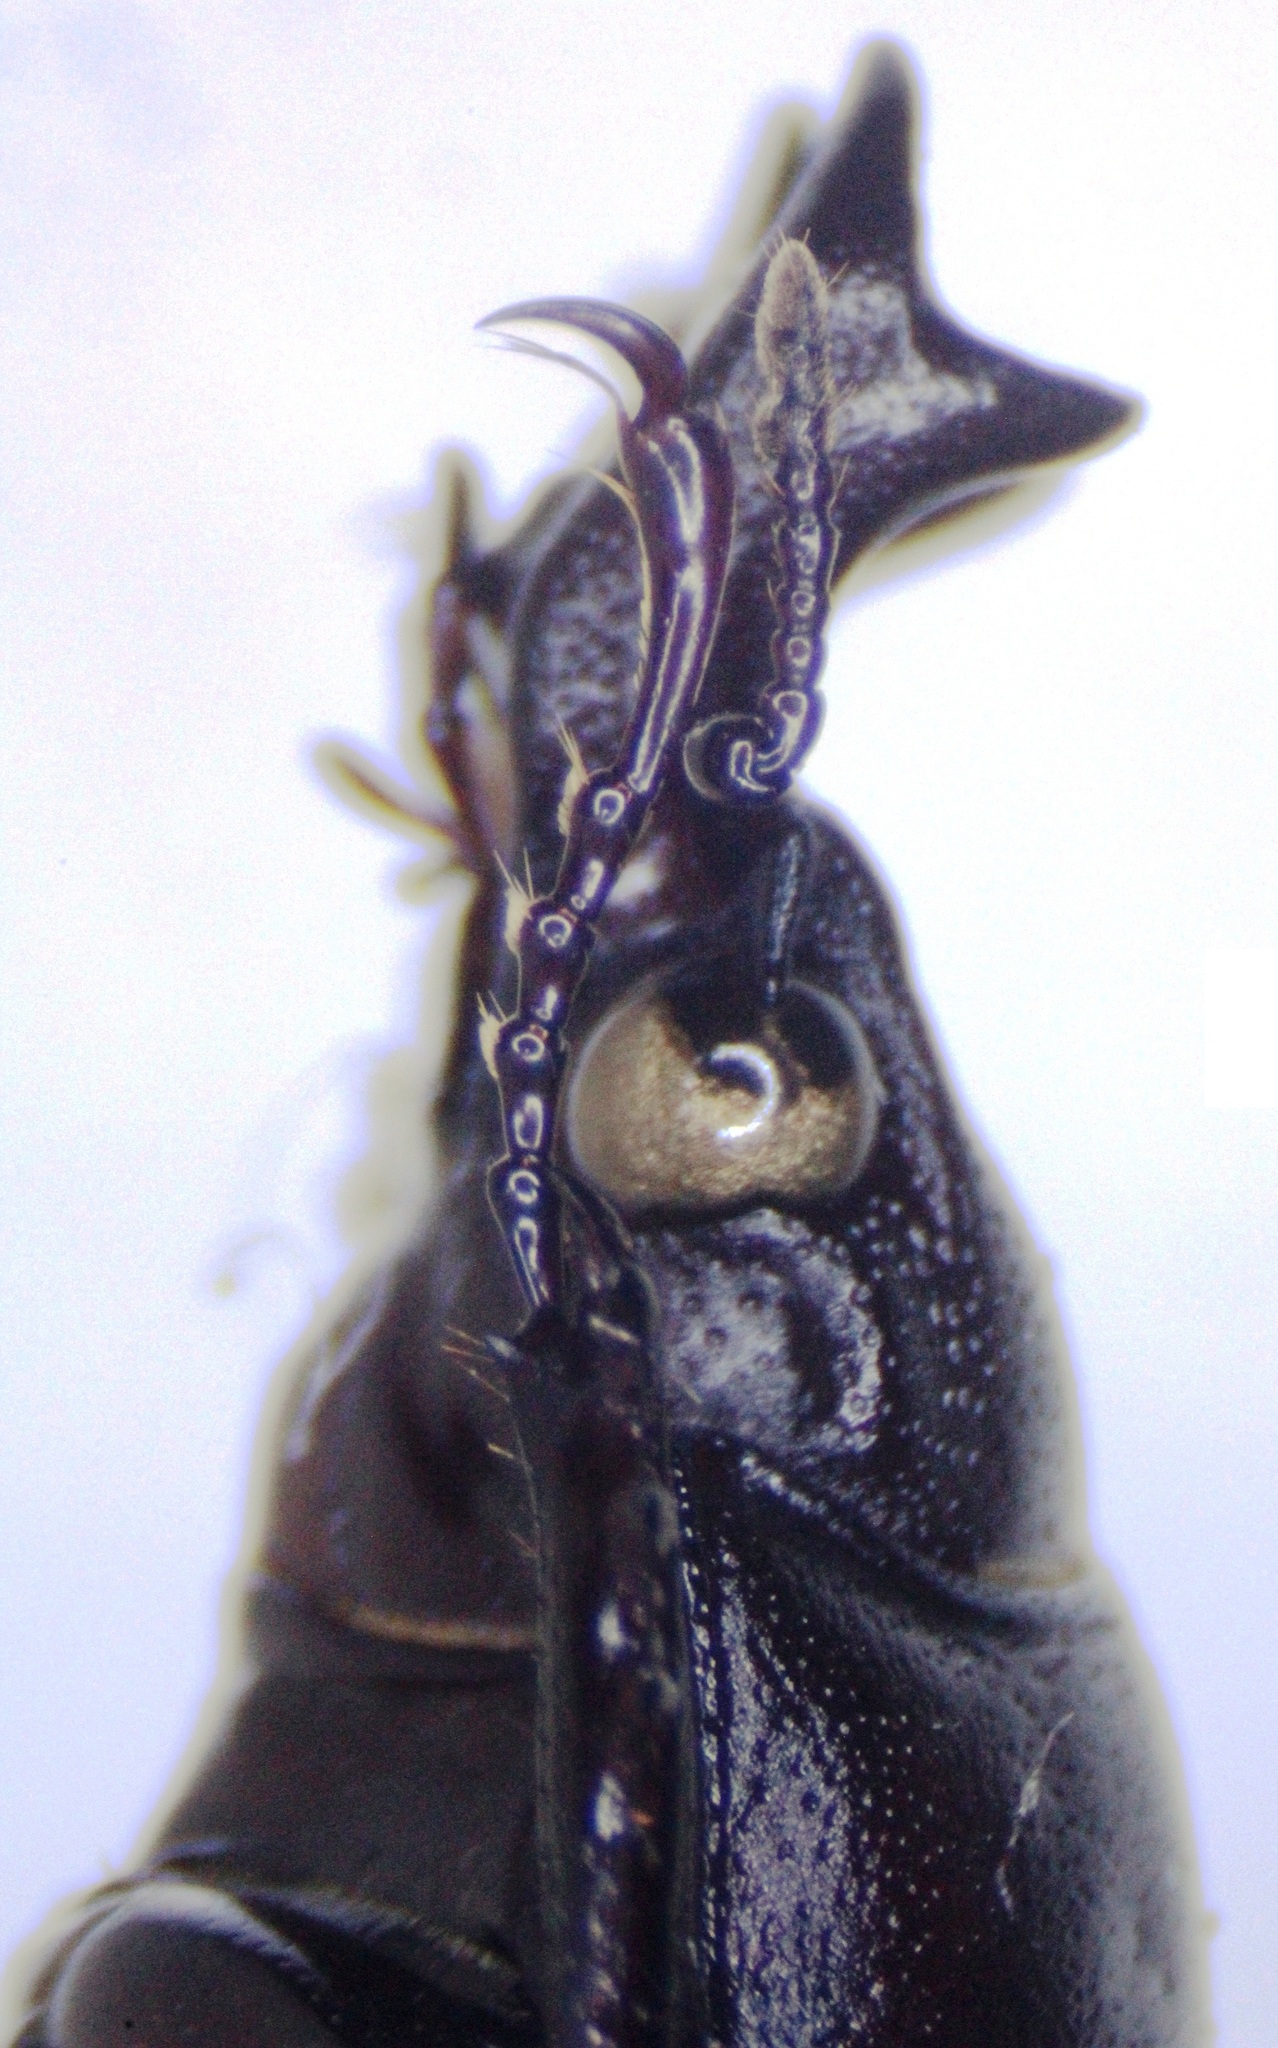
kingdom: Animalia
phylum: Arthropoda
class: Insecta
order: Coleoptera
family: Lucanidae
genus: Prismognathus
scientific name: Prismognathus angularis
